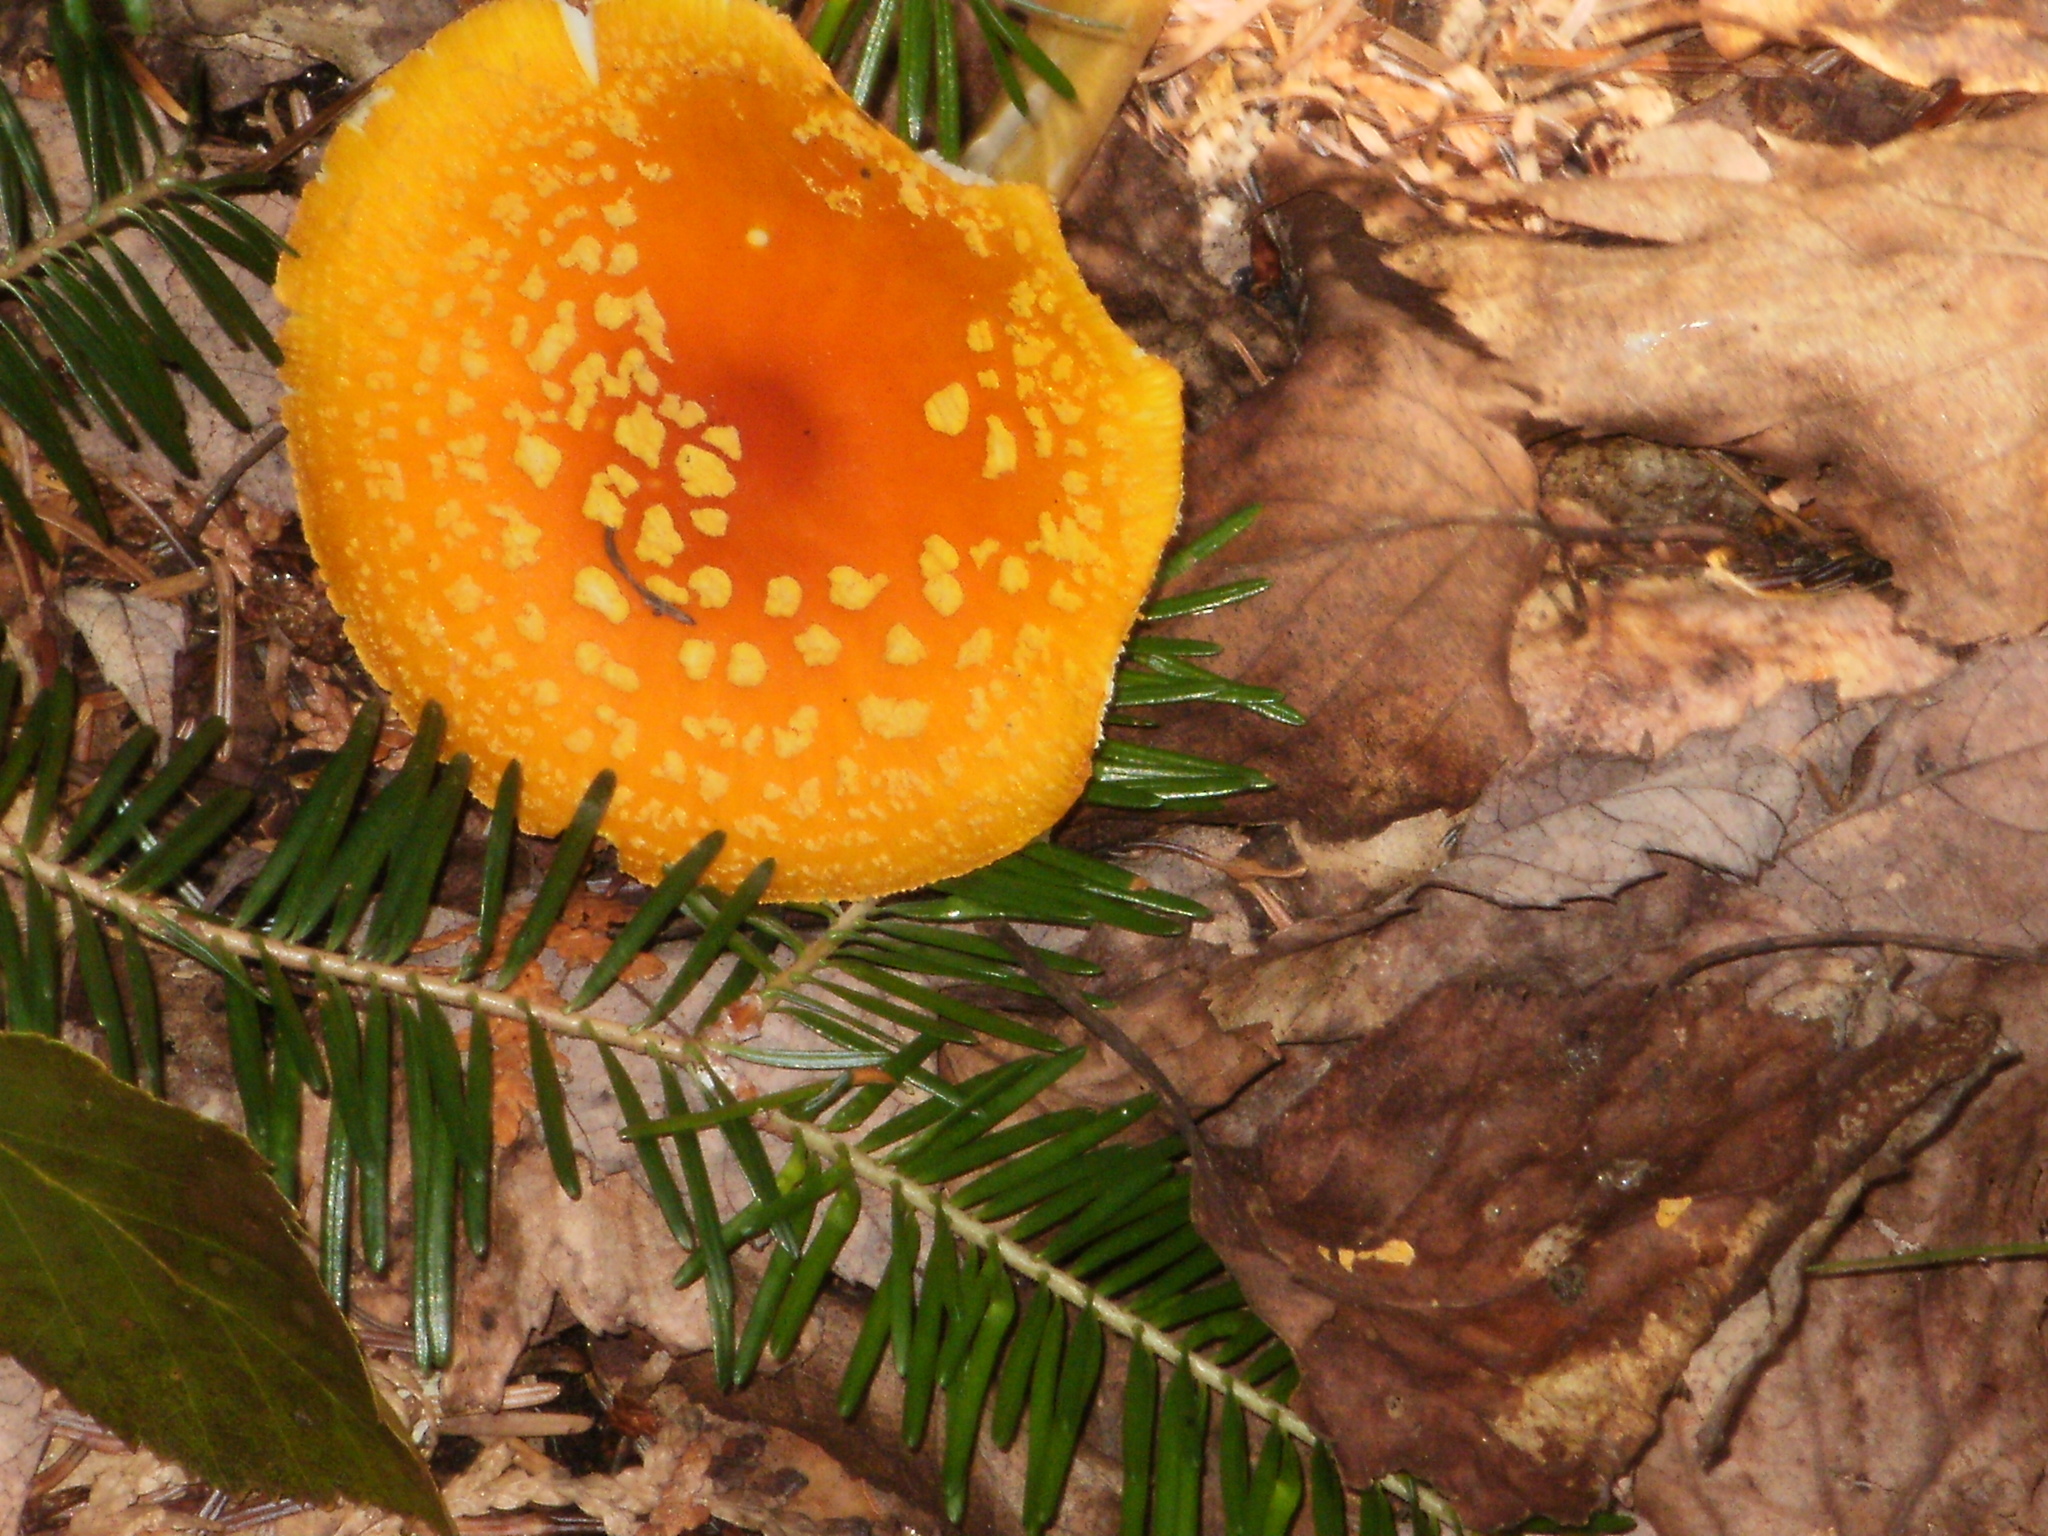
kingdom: Fungi
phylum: Basidiomycota
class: Agaricomycetes
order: Agaricales
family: Amanitaceae
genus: Amanita
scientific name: Amanita flavoconia
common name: Yellow patches
